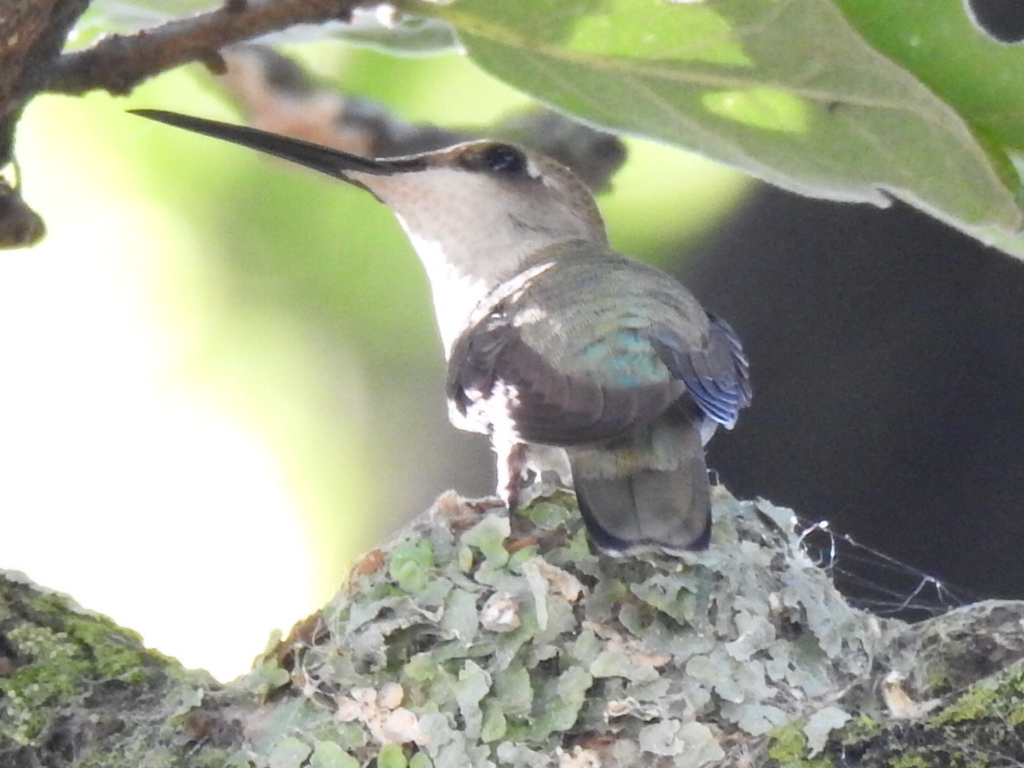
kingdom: Animalia
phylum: Chordata
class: Aves
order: Apodiformes
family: Trochilidae
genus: Archilochus
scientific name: Archilochus alexandri
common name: Black-chinned hummingbird
